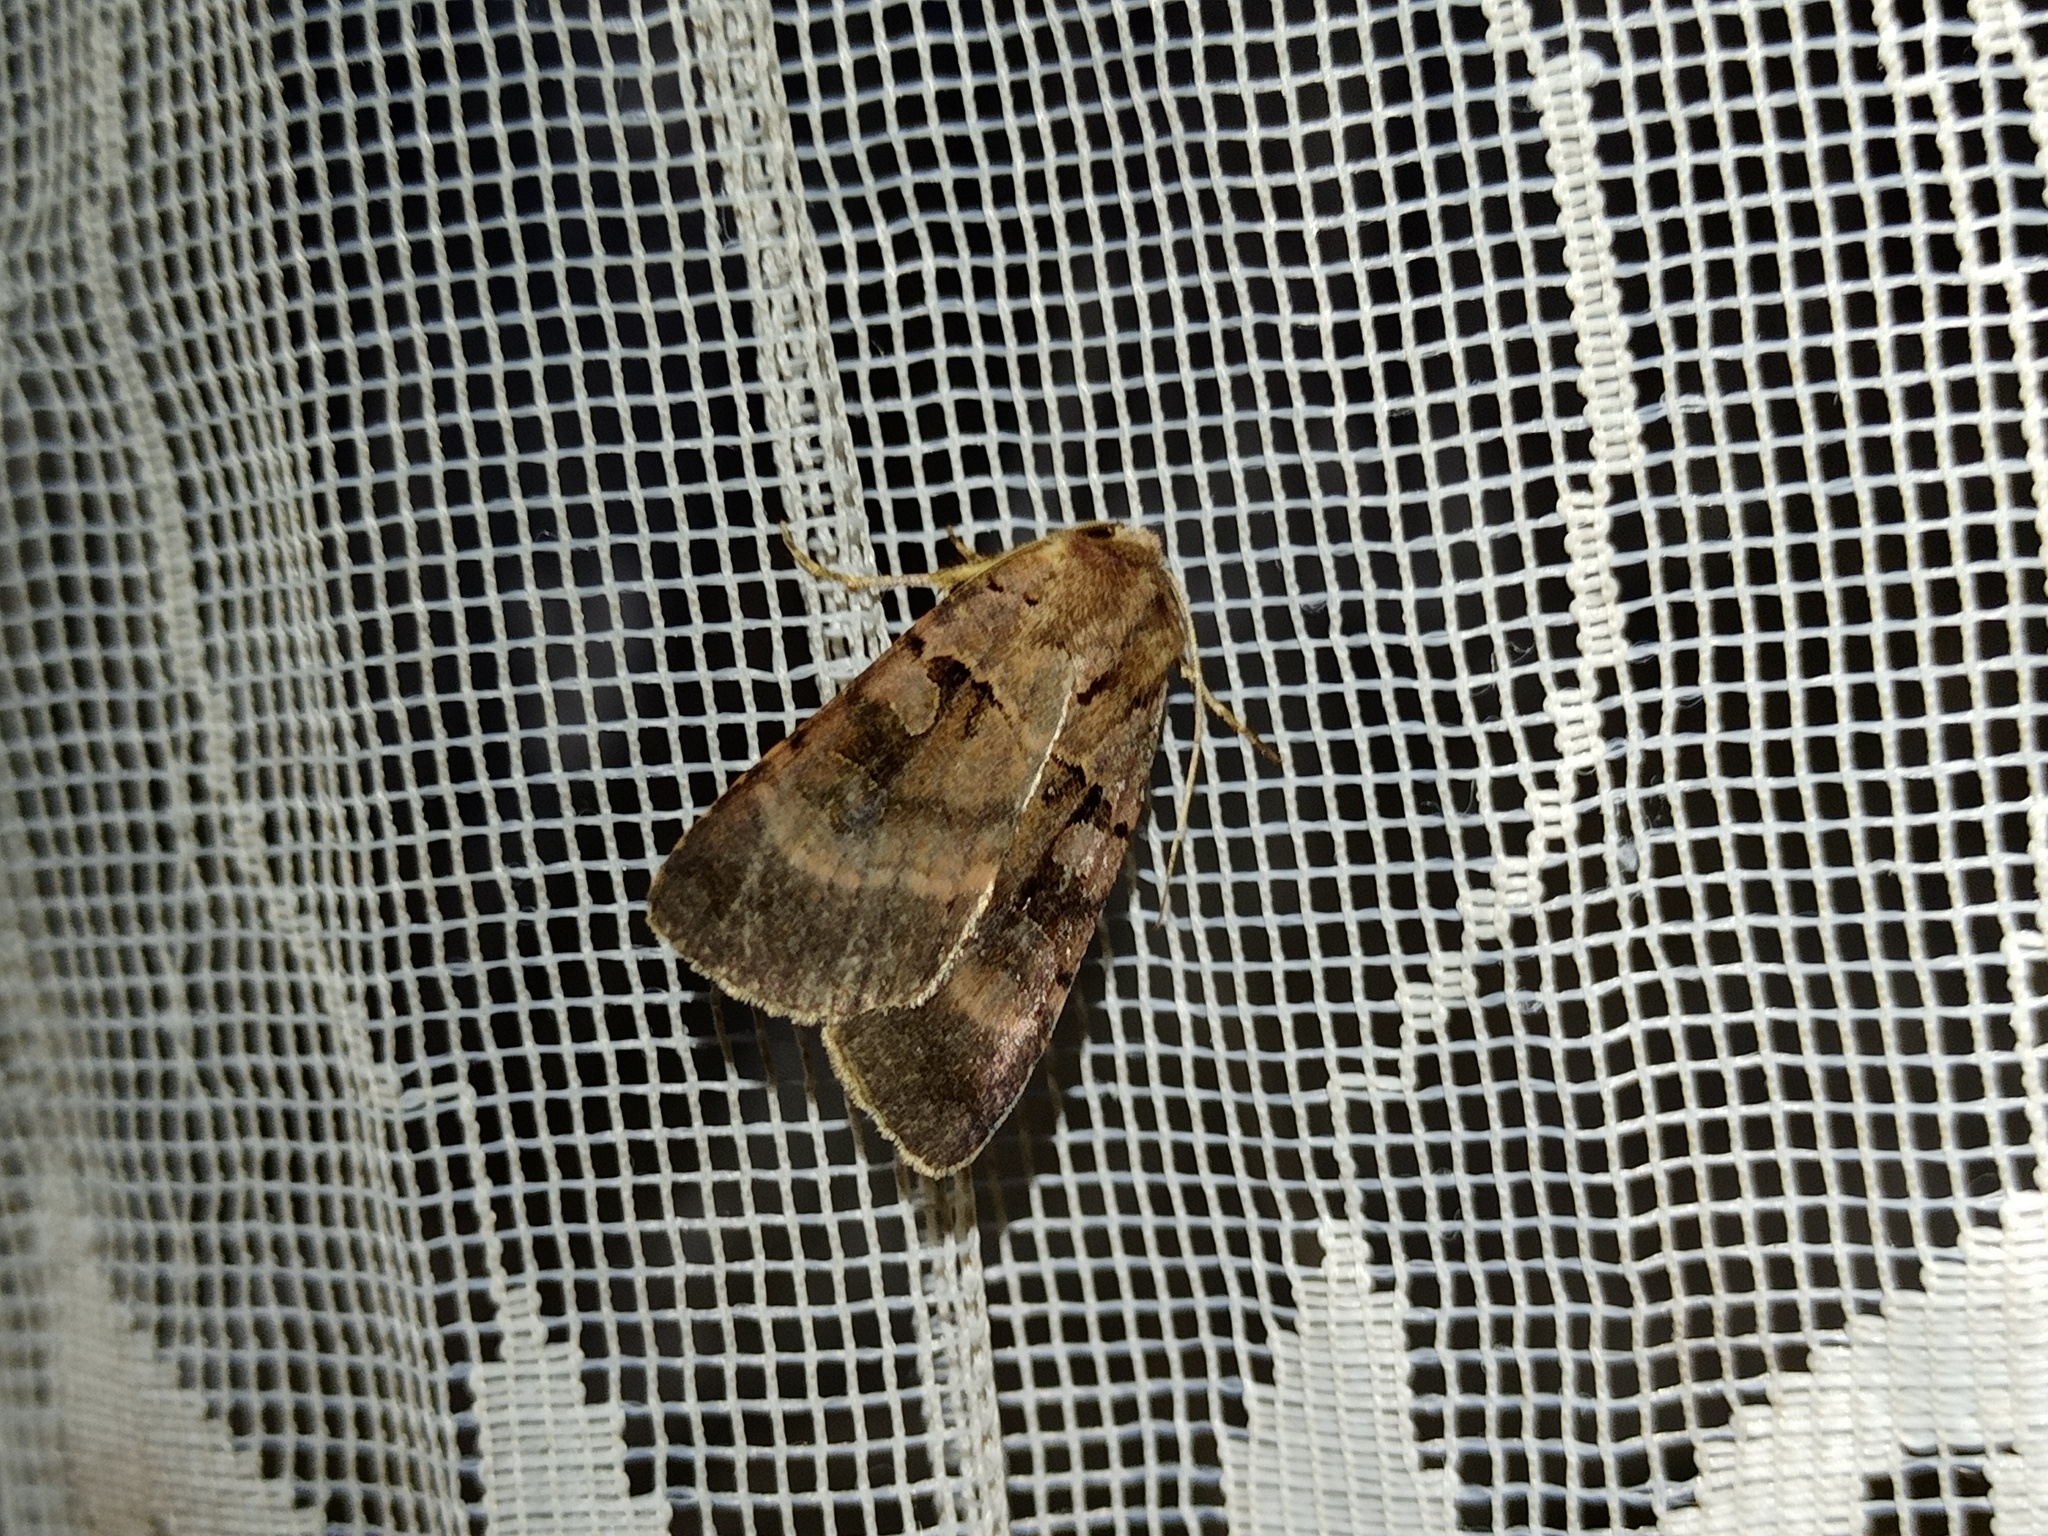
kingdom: Animalia
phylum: Arthropoda
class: Insecta
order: Lepidoptera
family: Noctuidae
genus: Xestia
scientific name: Xestia stigmatica
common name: Square-spotted clay
